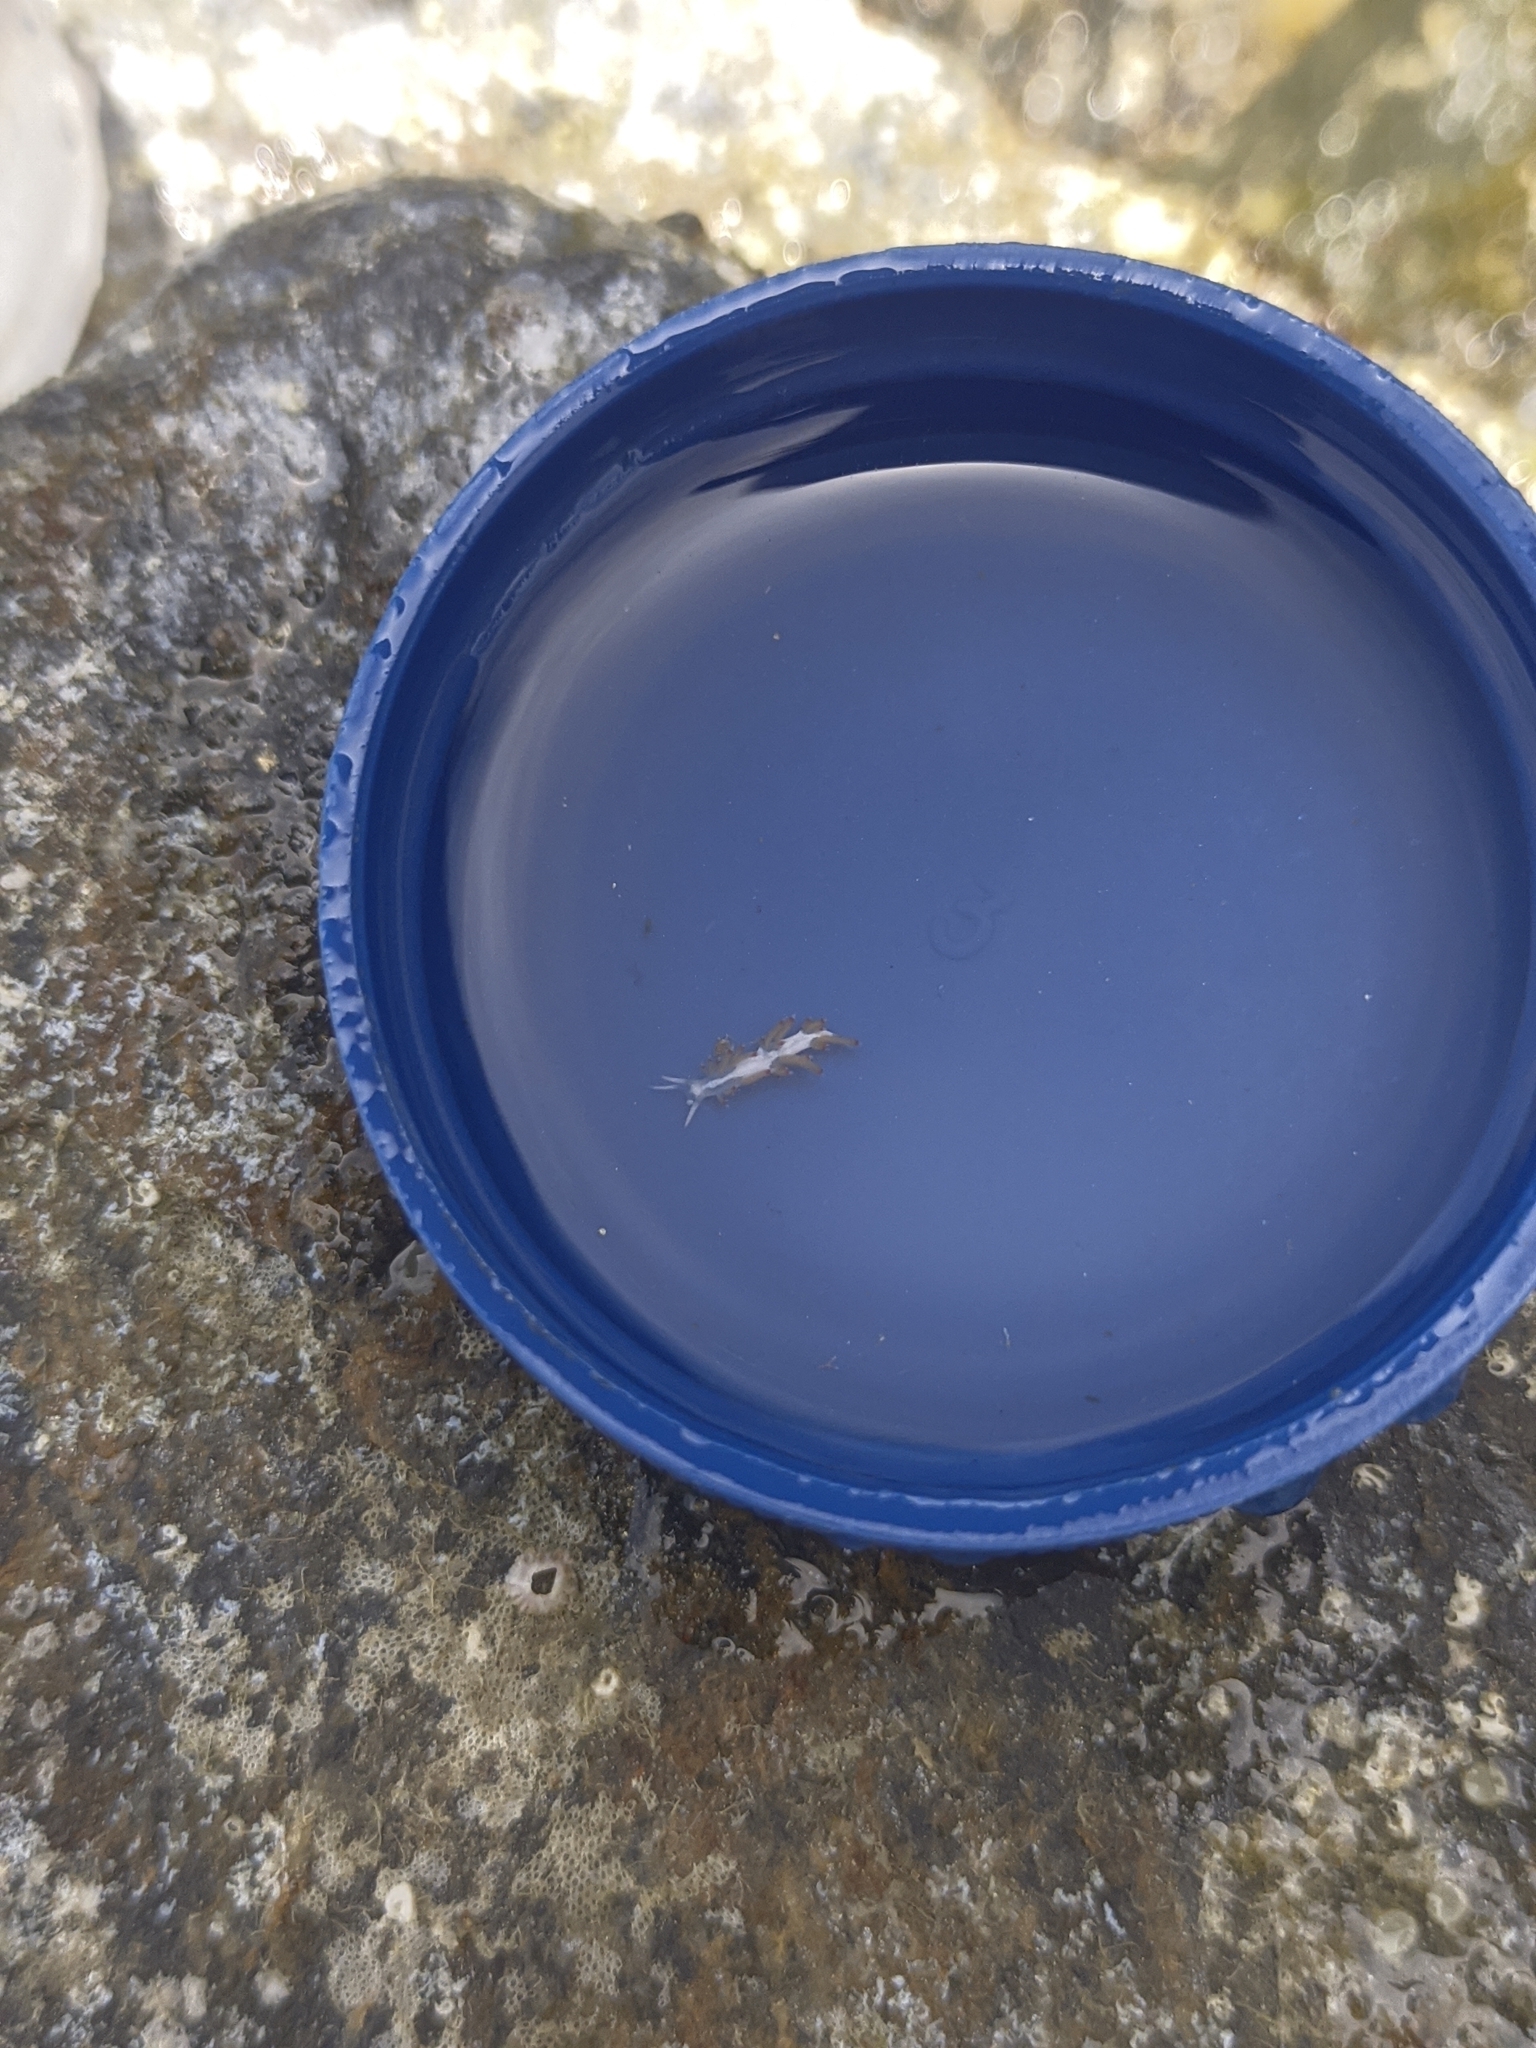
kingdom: Animalia
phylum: Mollusca
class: Gastropoda
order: Nudibranchia
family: Flabellinidae
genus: Flabellina
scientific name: Flabellina dushia
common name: Dushia flabellina
